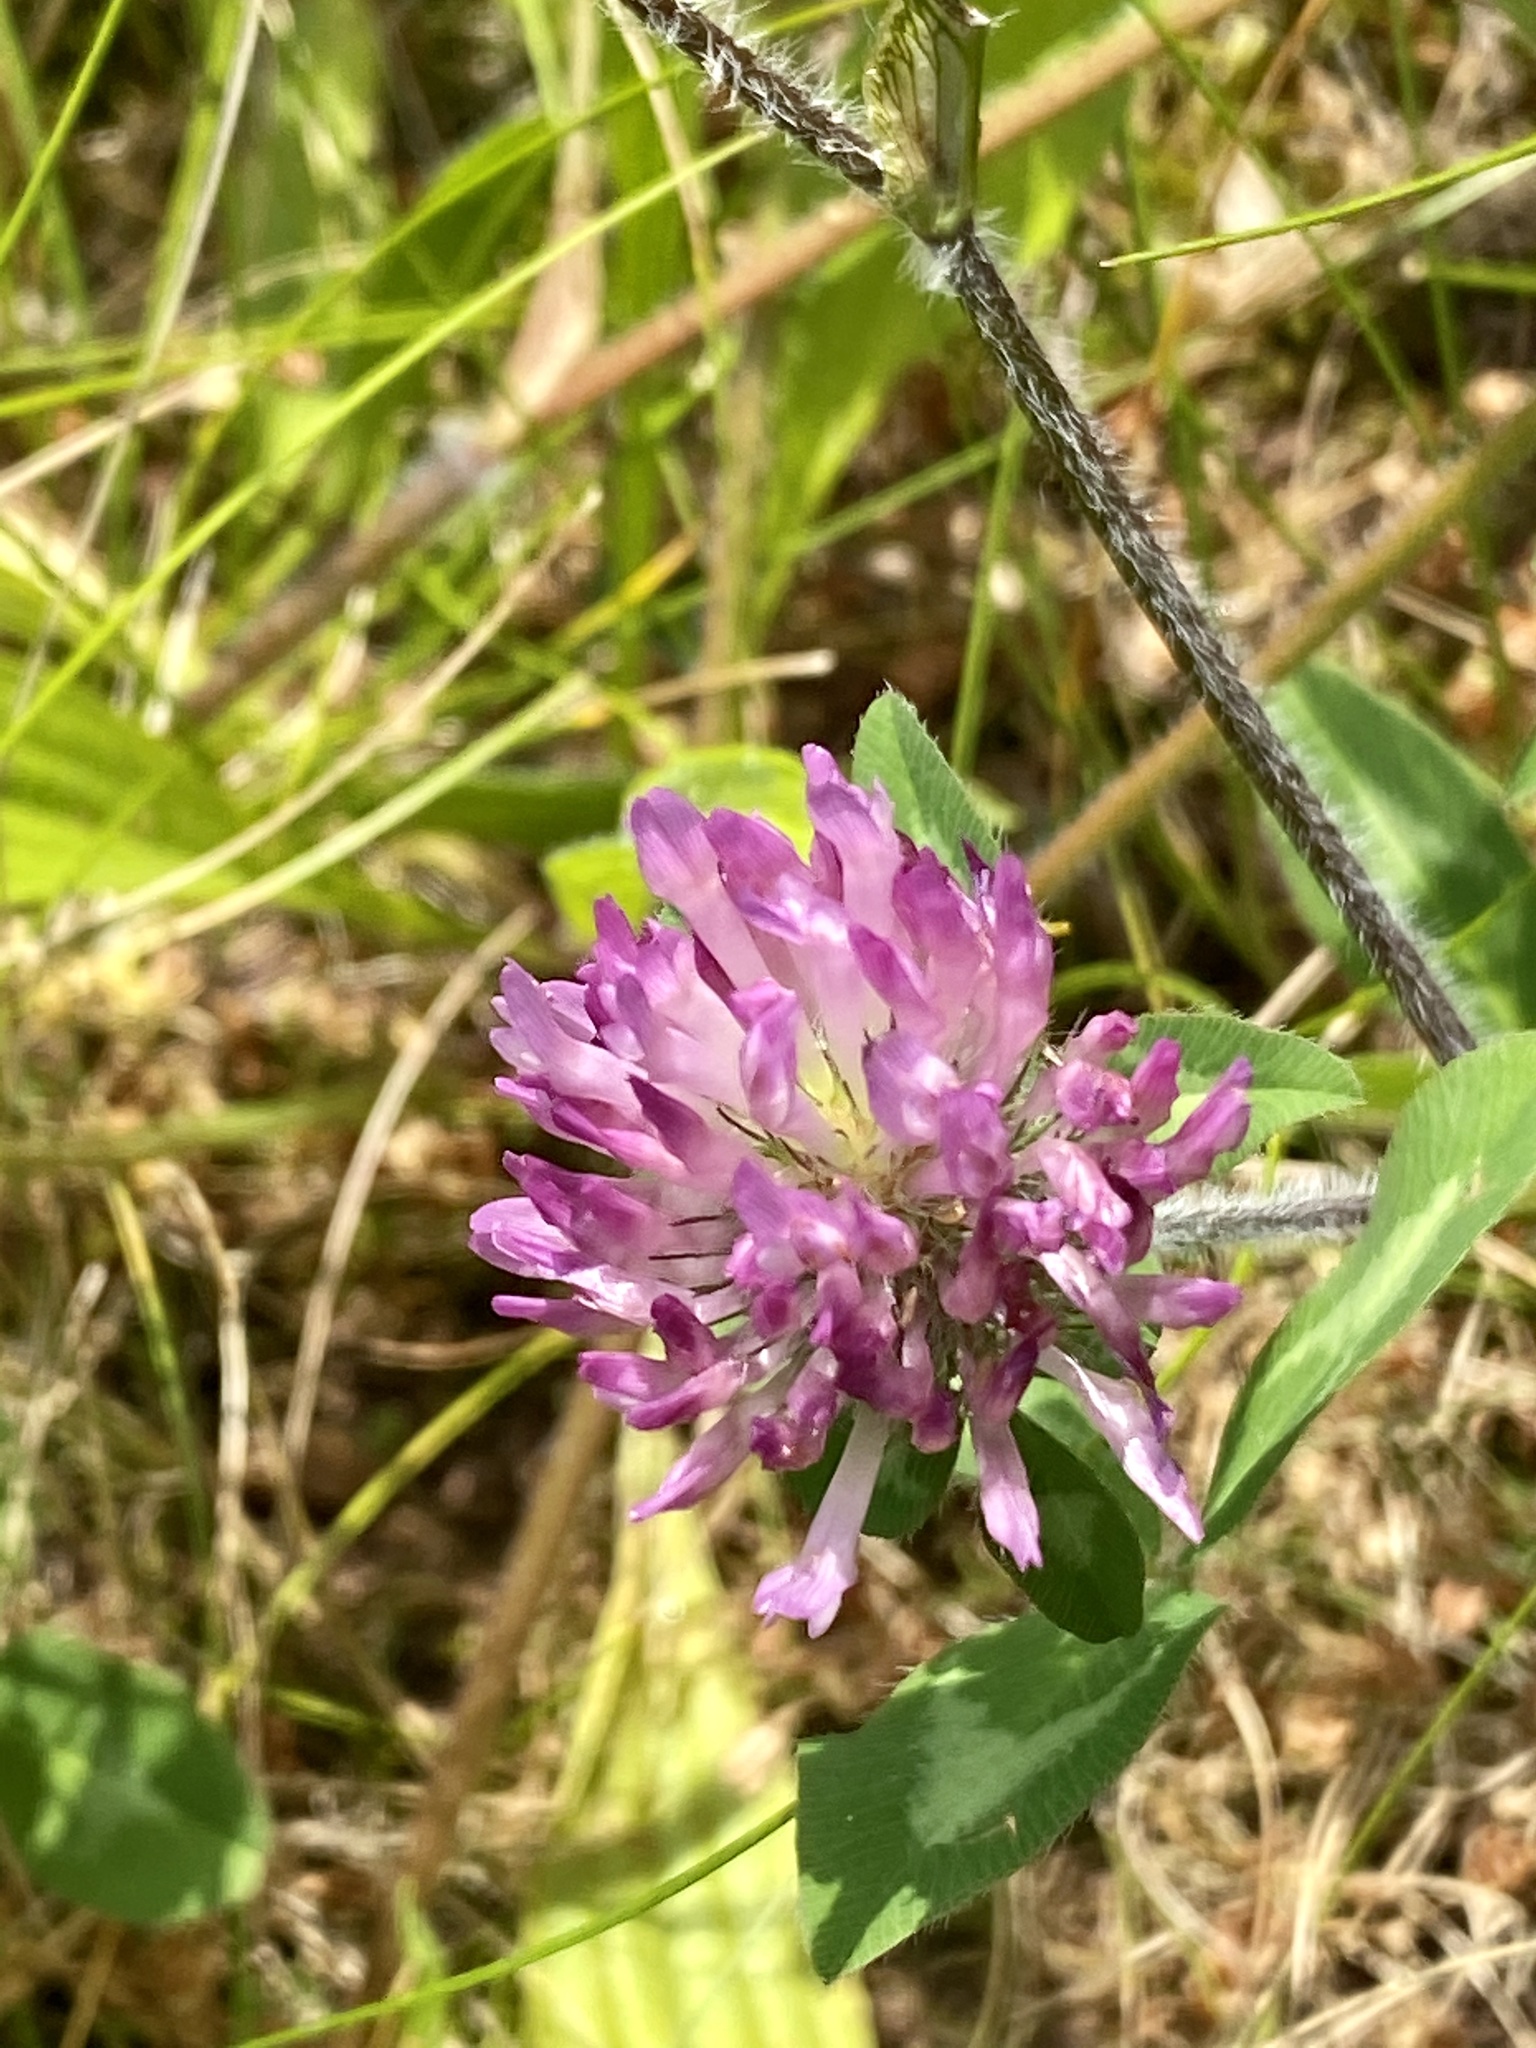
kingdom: Plantae
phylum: Tracheophyta
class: Magnoliopsida
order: Fabales
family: Fabaceae
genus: Trifolium
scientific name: Trifolium pratense
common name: Red clover
